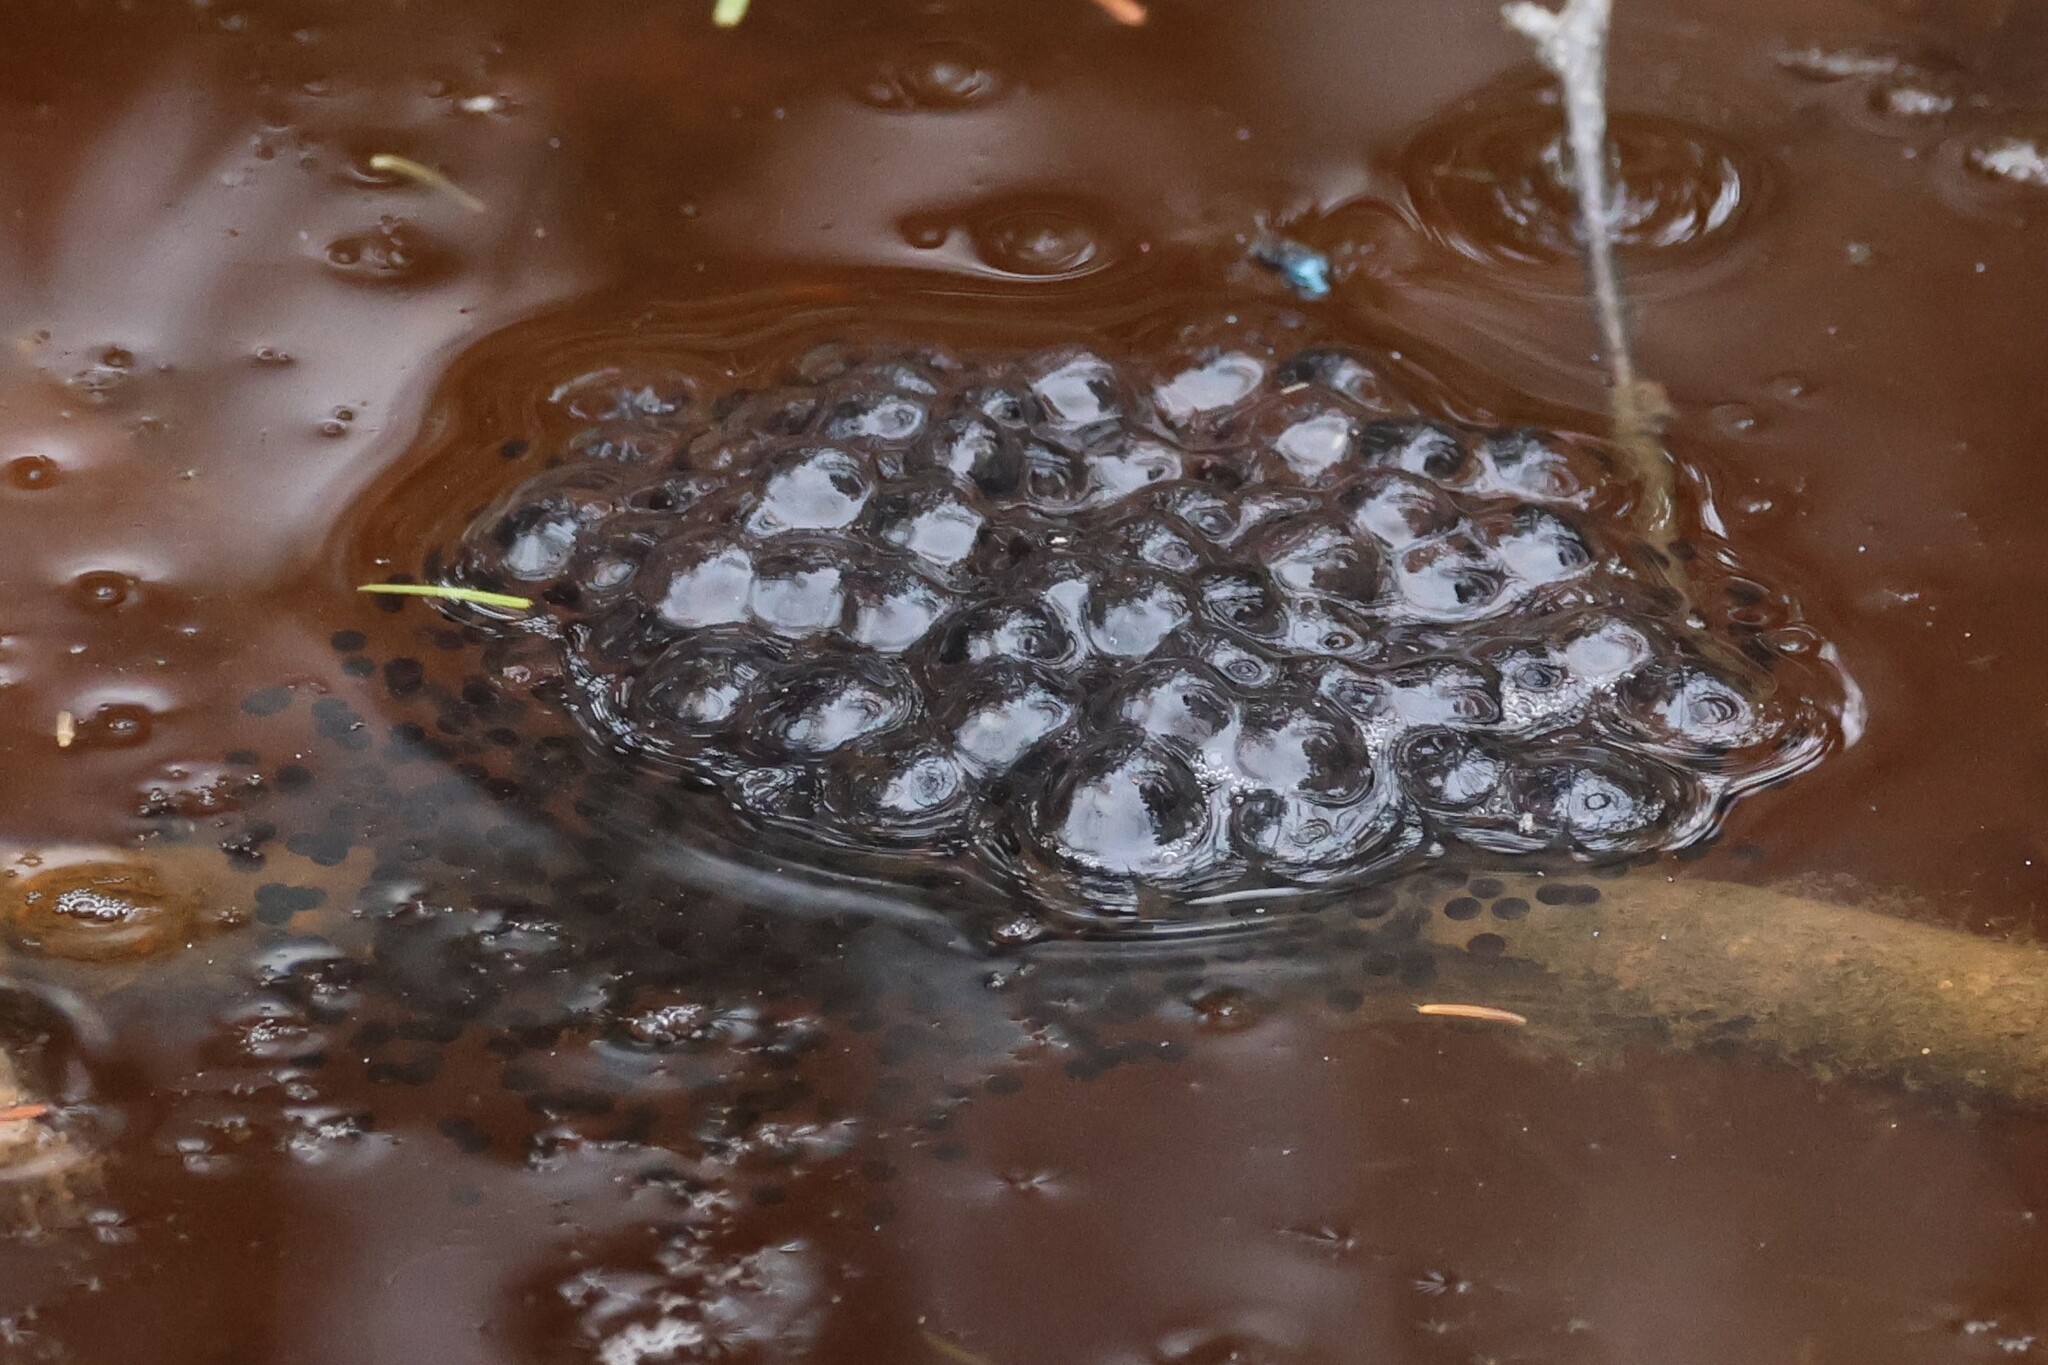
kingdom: Animalia
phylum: Chordata
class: Amphibia
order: Anura
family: Ranidae
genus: Lithobates
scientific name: Lithobates sylvaticus
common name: Wood frog
